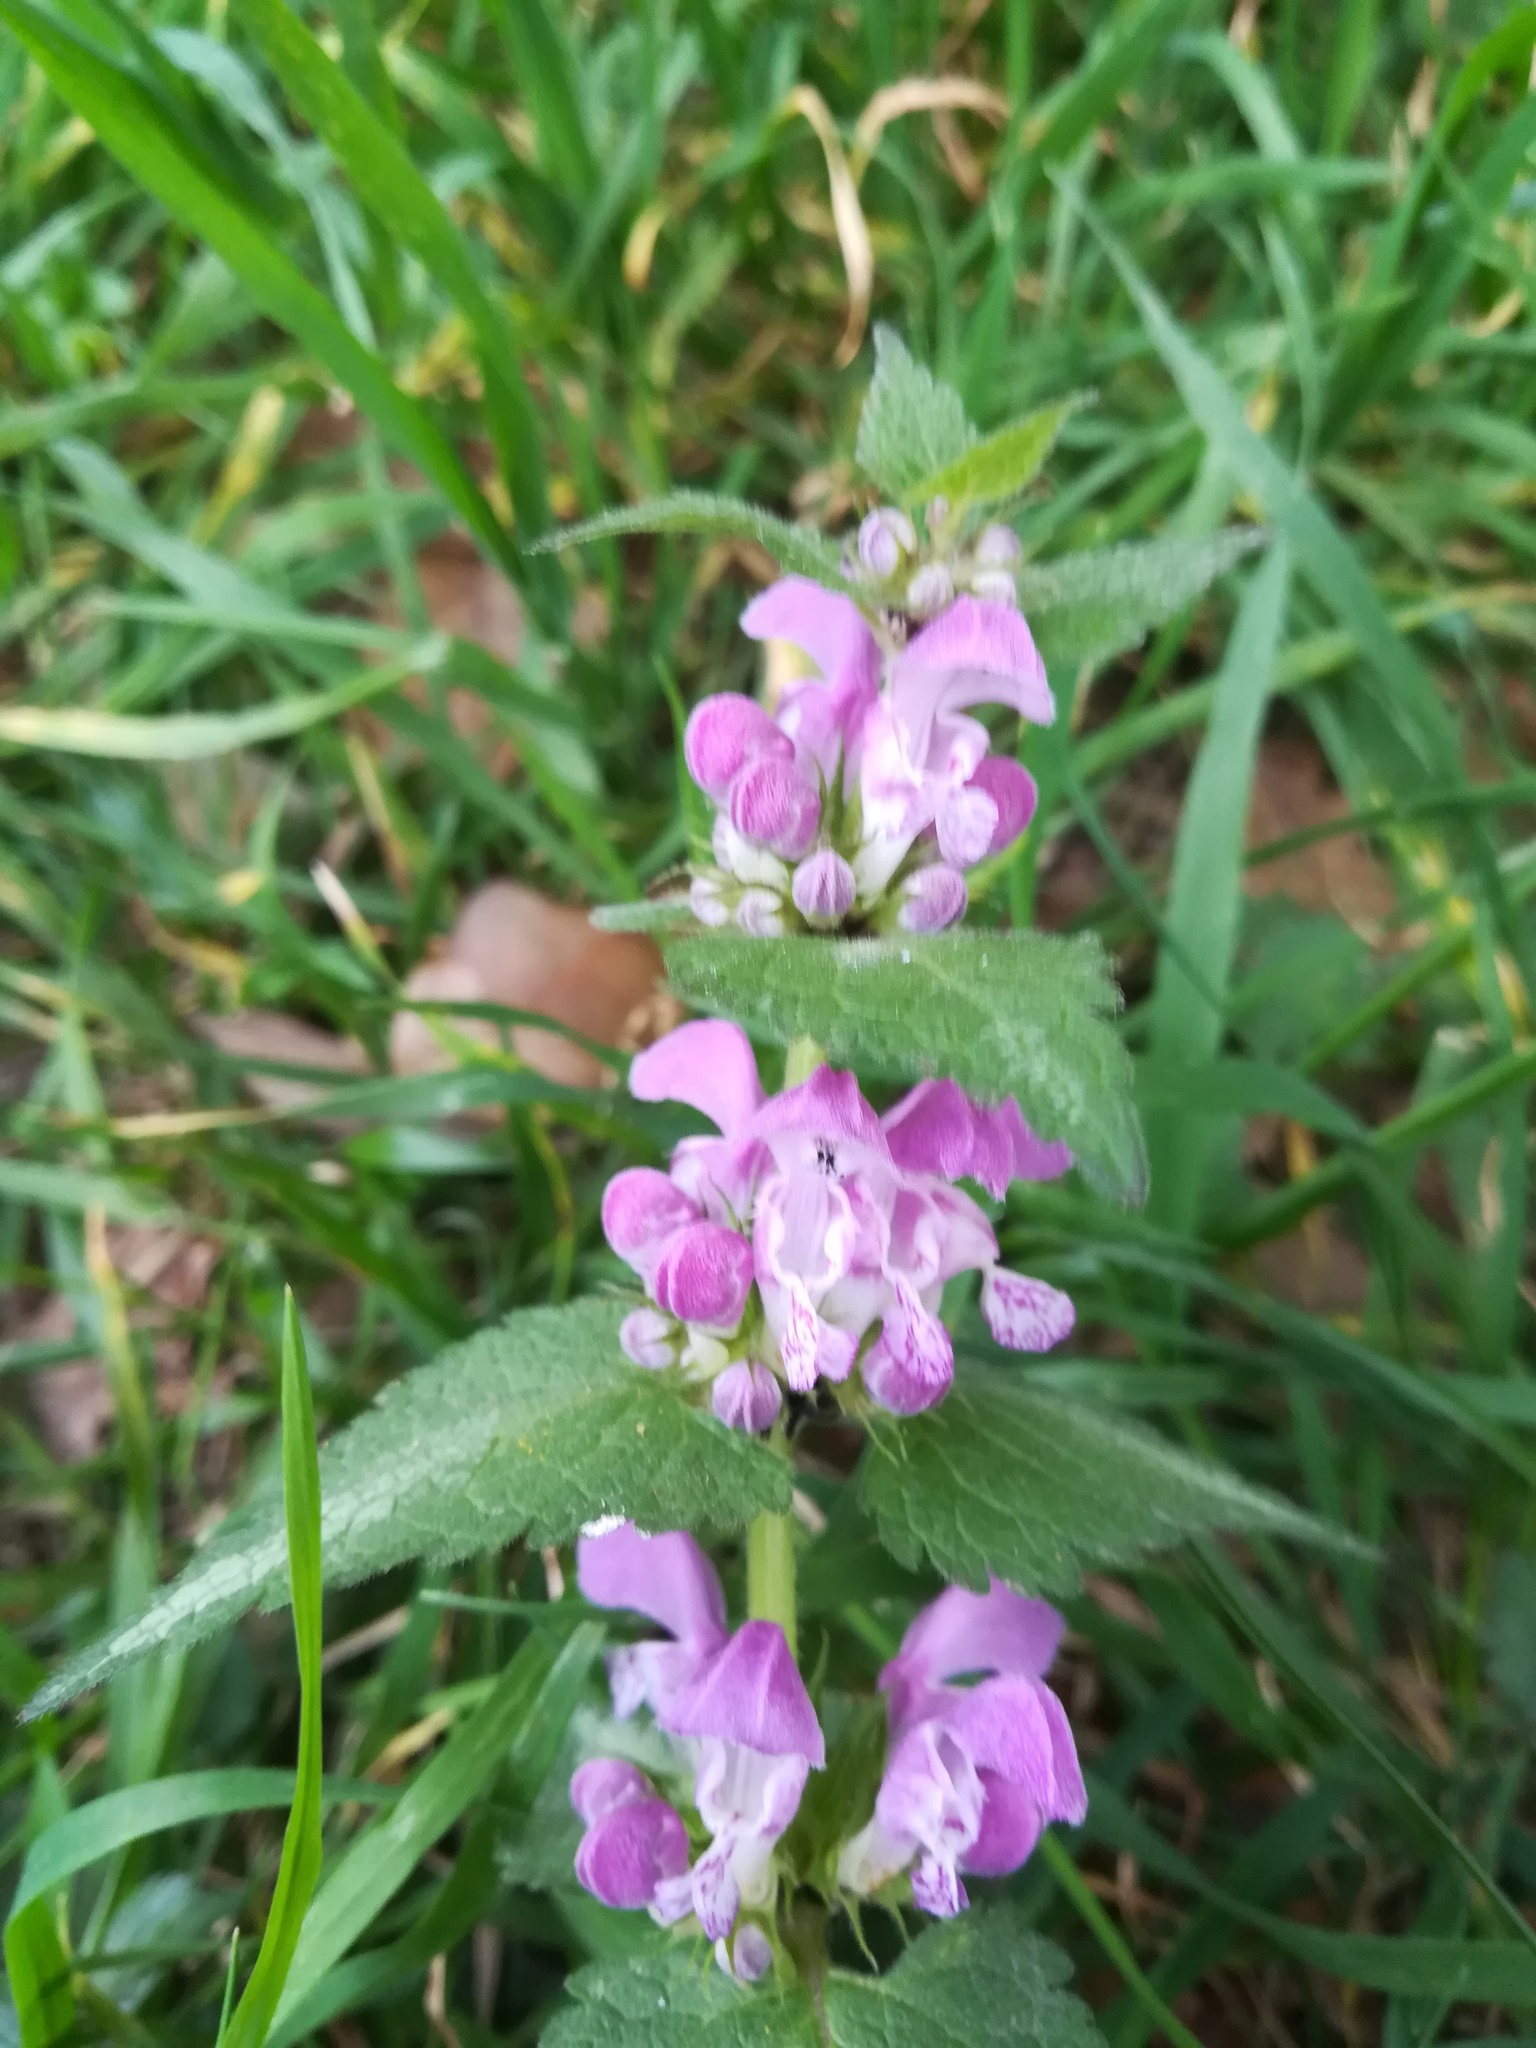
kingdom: Plantae
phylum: Tracheophyta
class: Magnoliopsida
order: Lamiales
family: Lamiaceae
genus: Lamium
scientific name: Lamium maculatum
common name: Spotted dead-nettle
